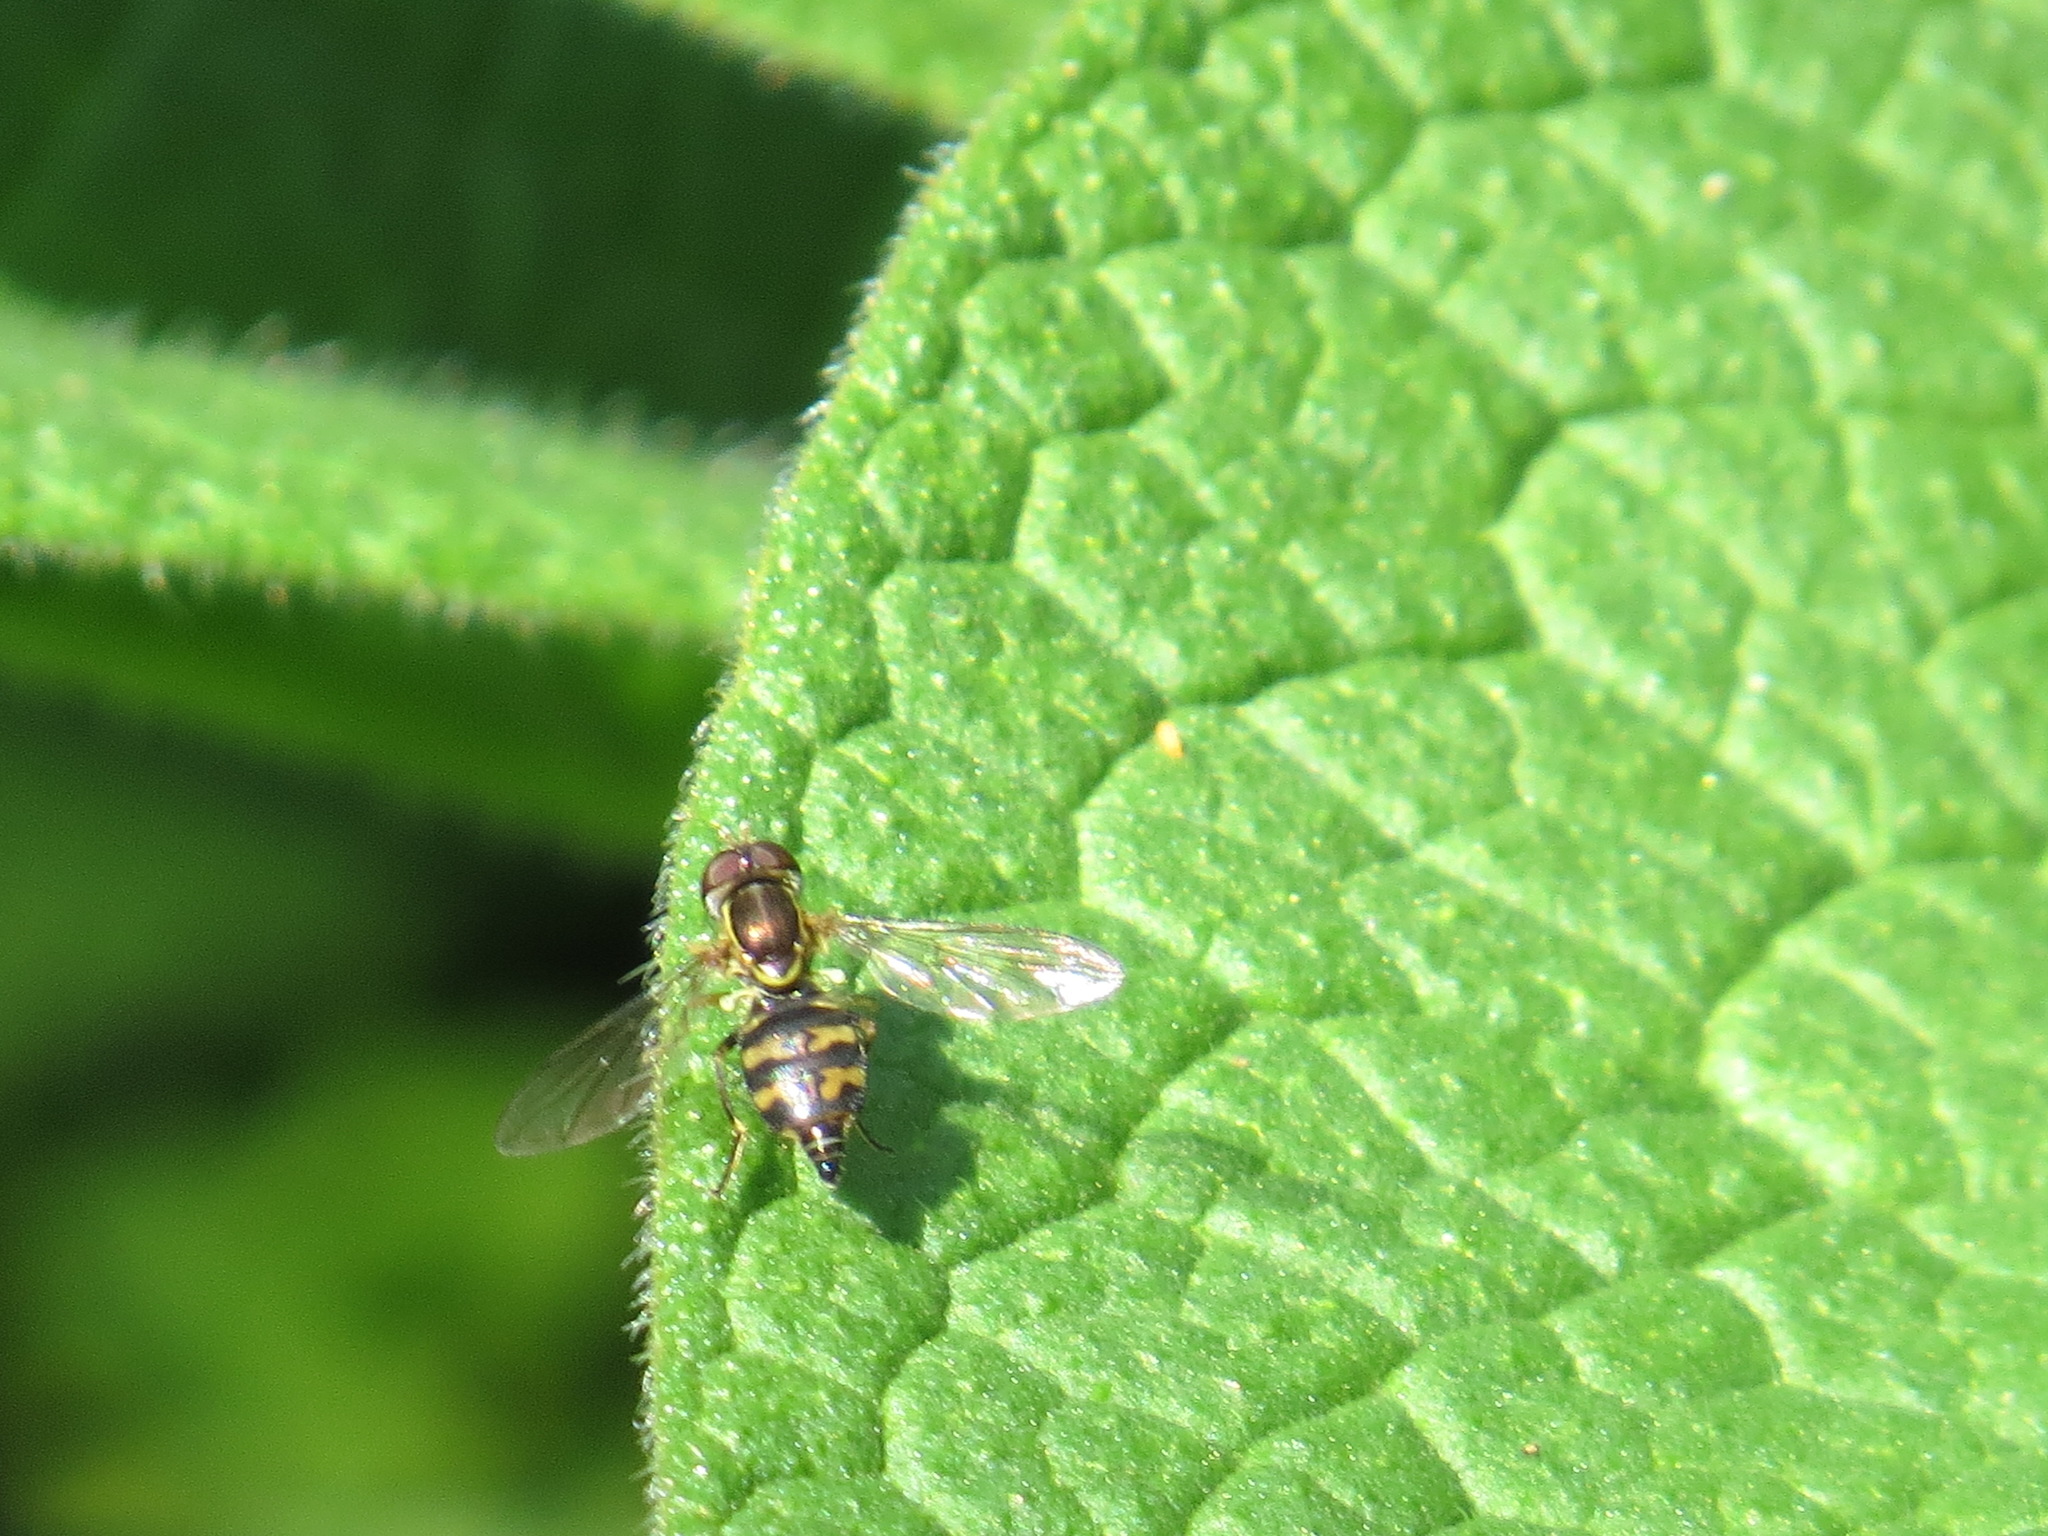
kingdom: Animalia
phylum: Arthropoda
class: Insecta
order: Diptera
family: Syrphidae
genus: Toxomerus
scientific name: Toxomerus occidentalis
